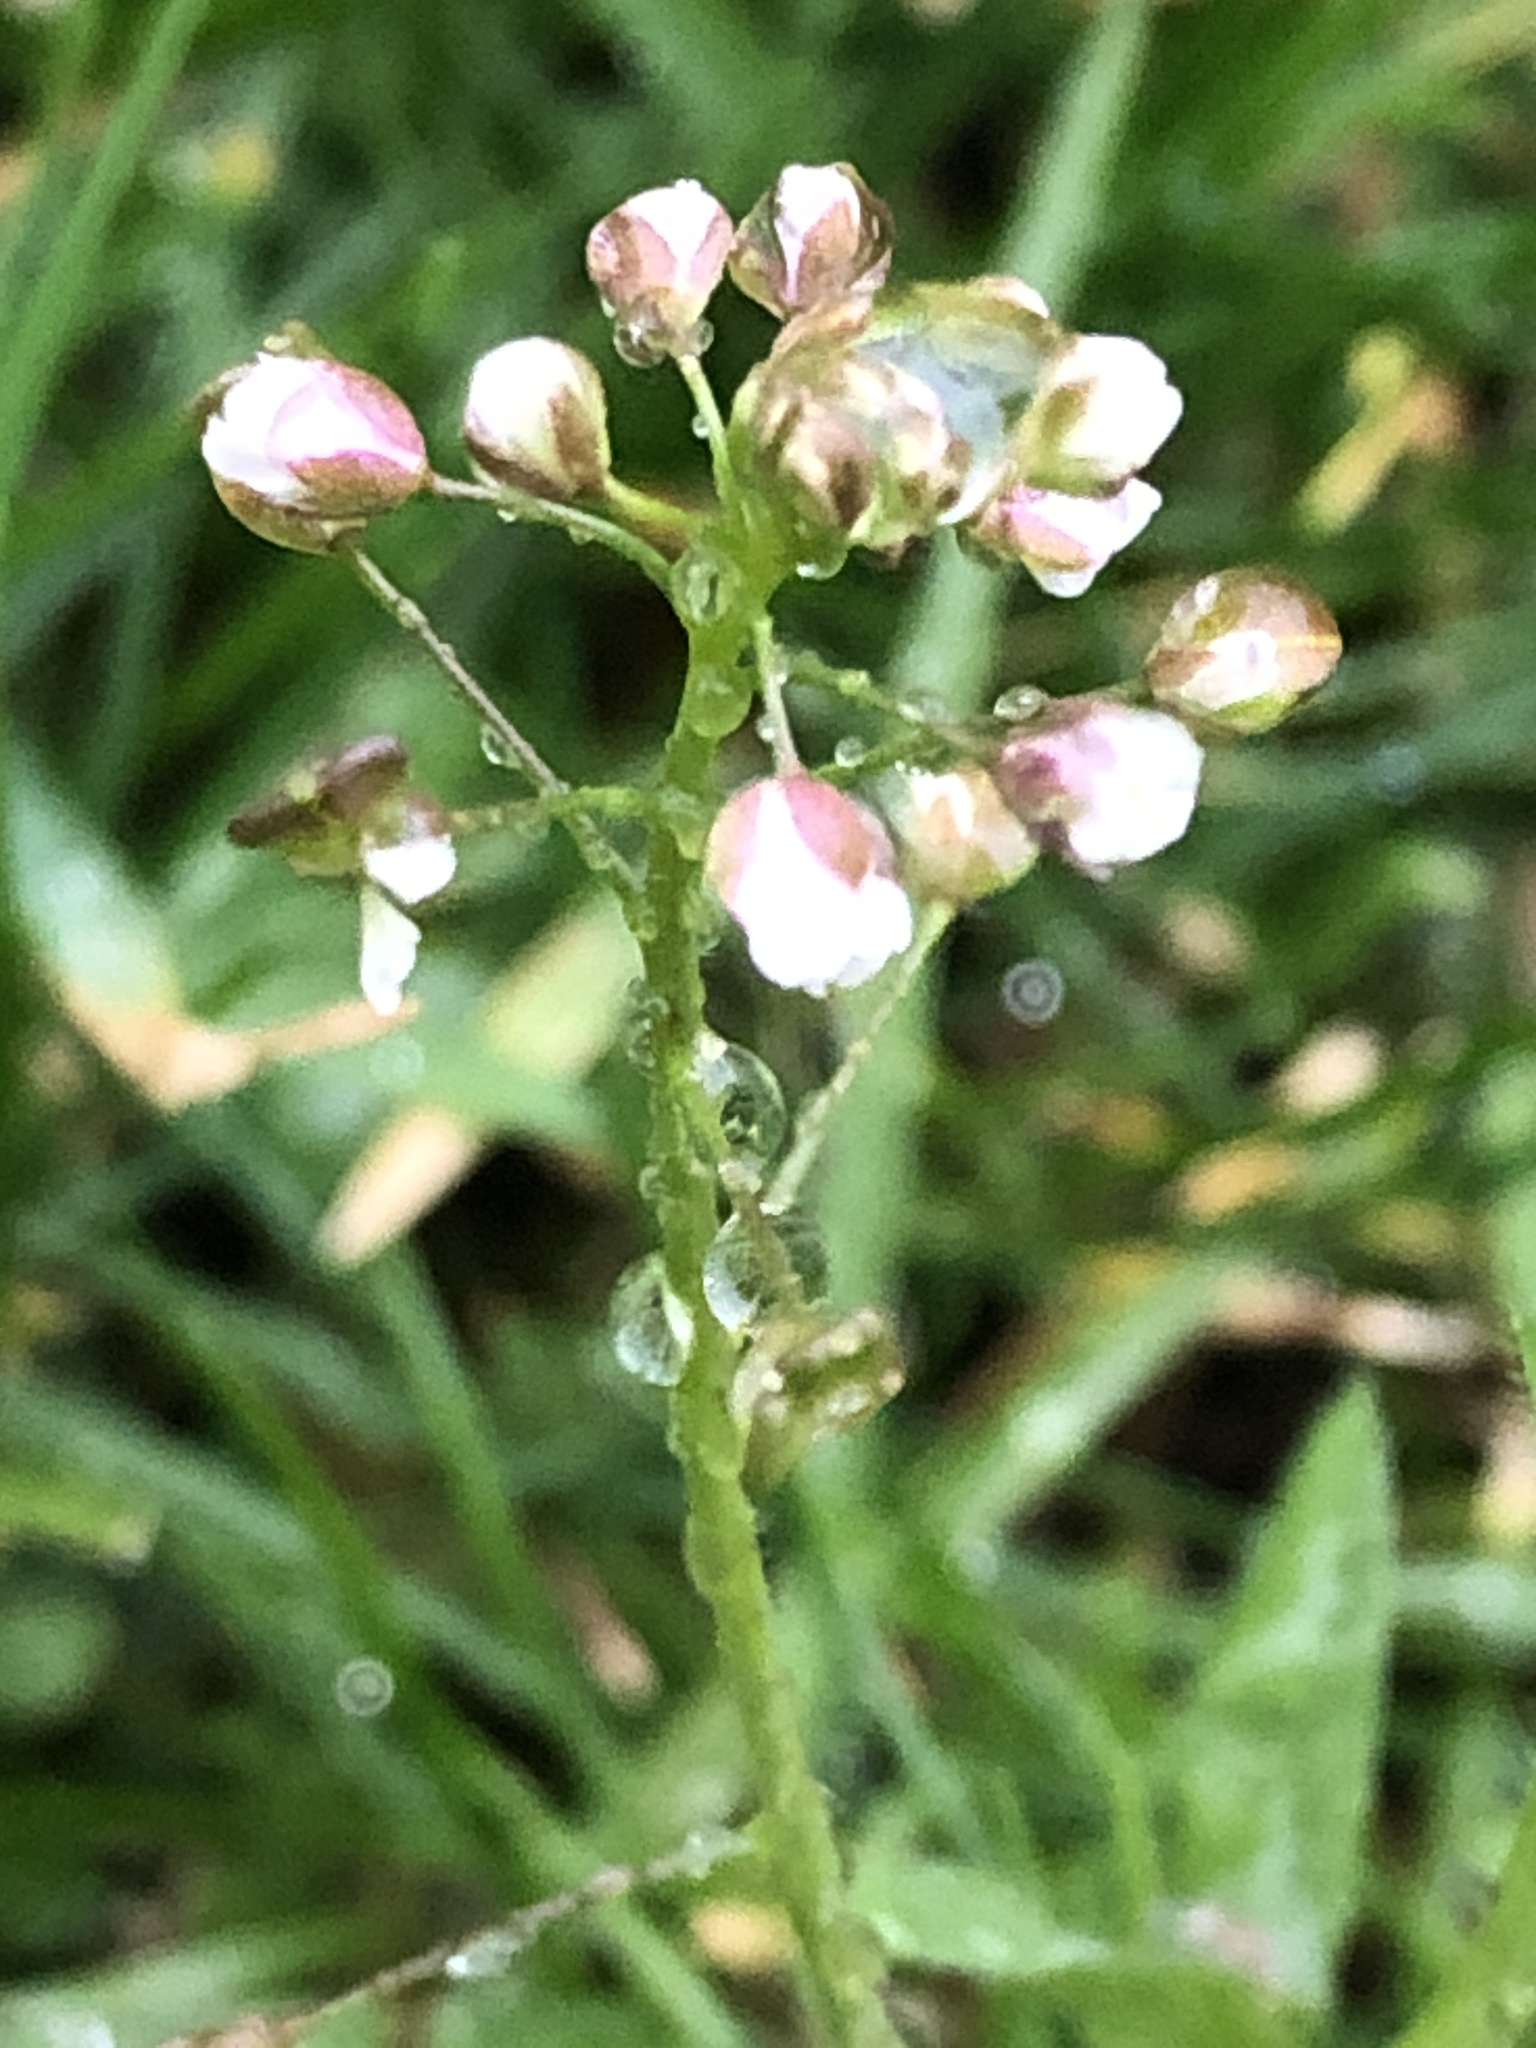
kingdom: Plantae
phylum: Tracheophyta
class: Magnoliopsida
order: Brassicales
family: Brassicaceae
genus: Capsella
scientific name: Capsella bursa-pastoris
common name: Shepherd's purse
